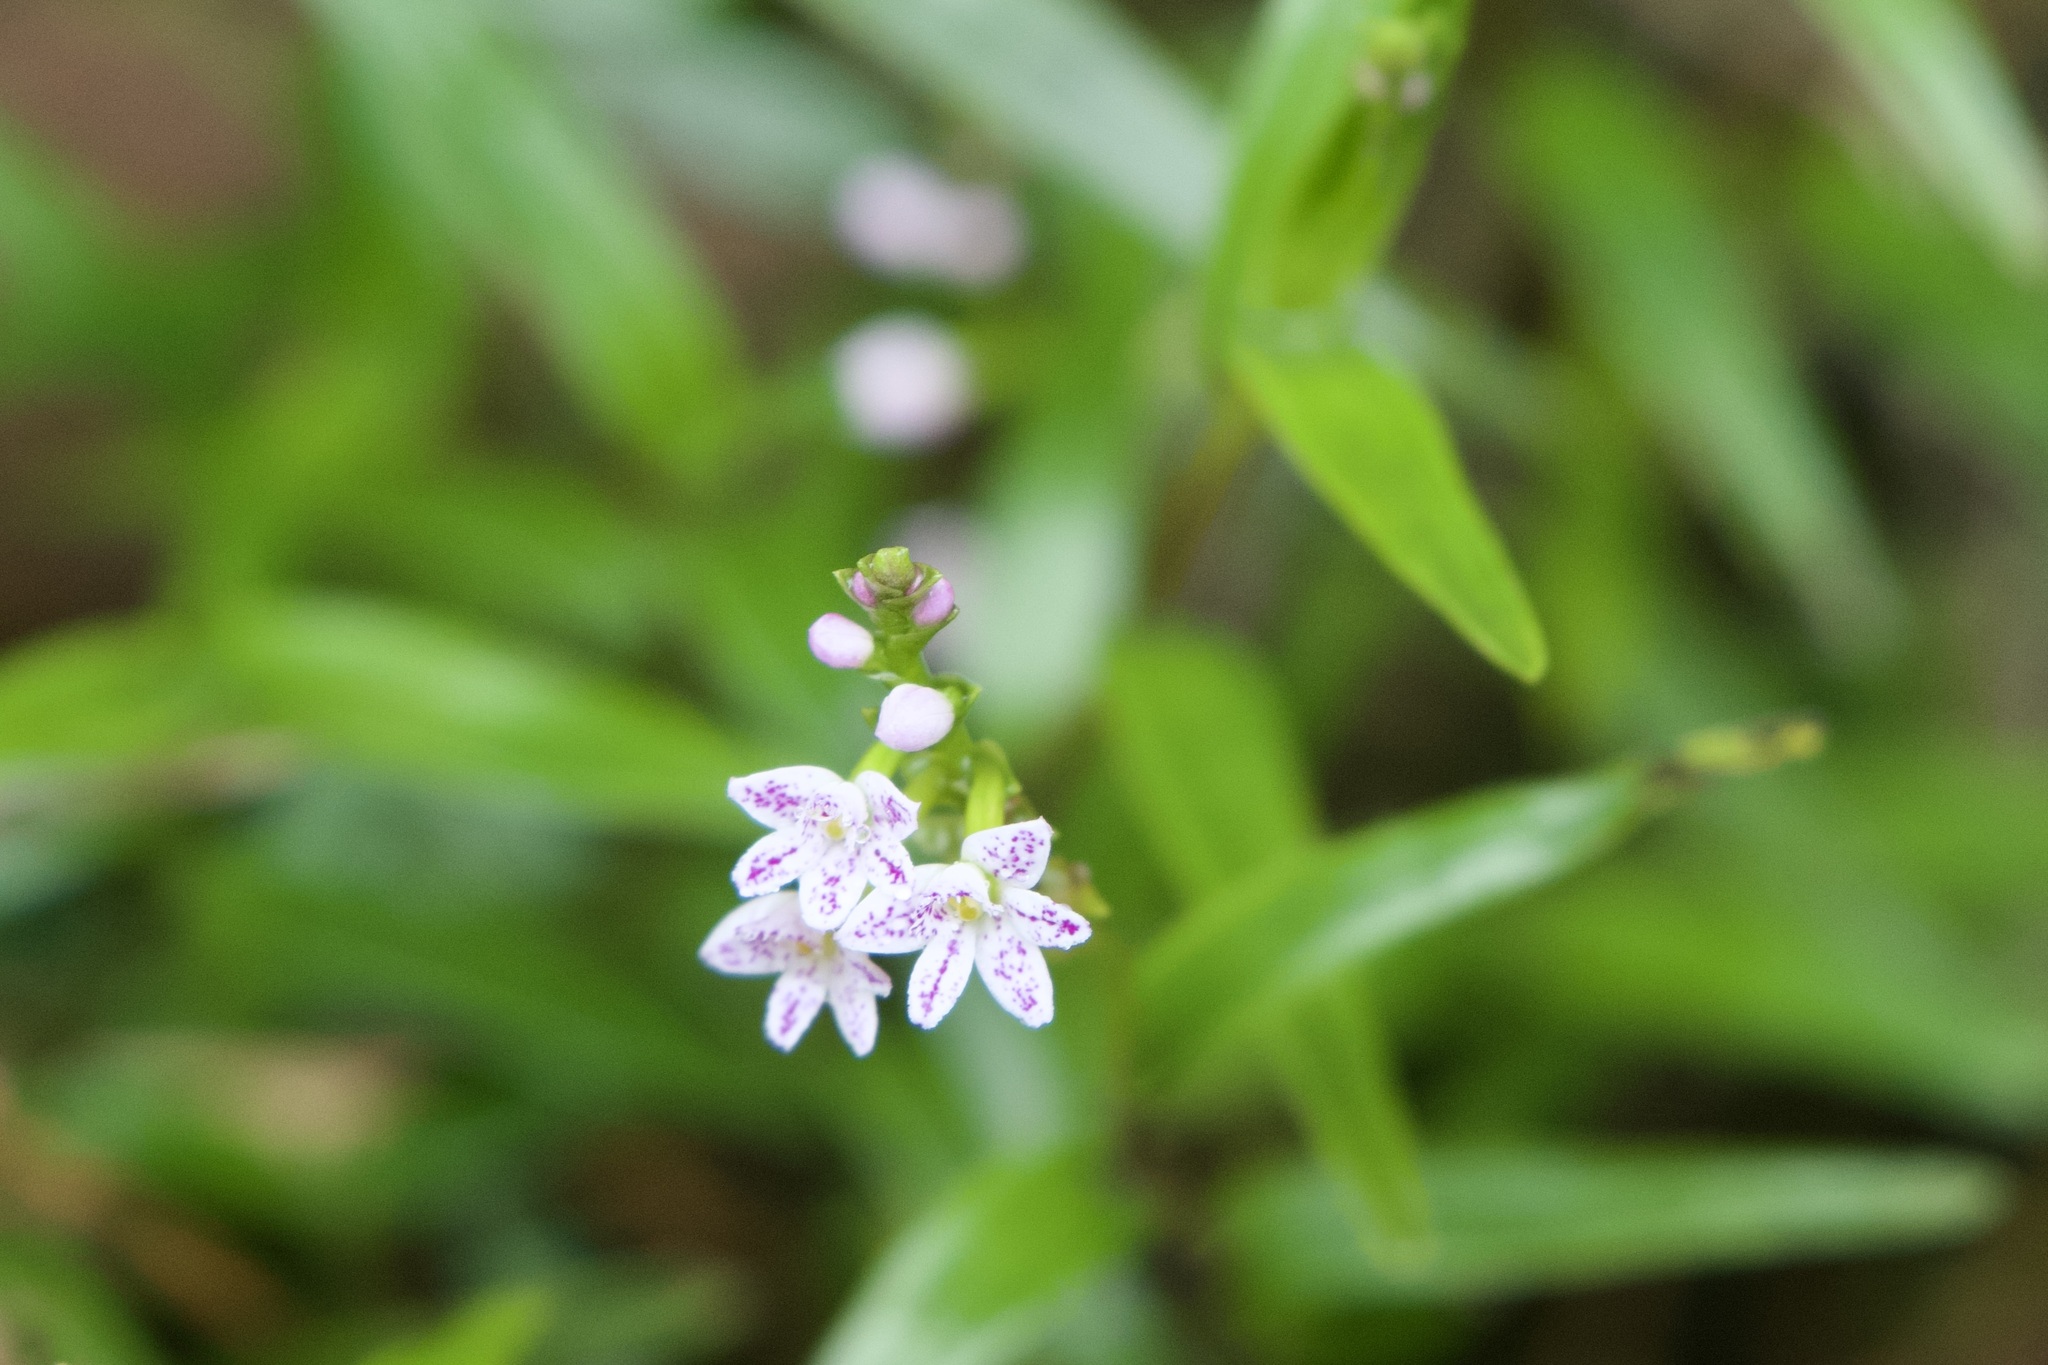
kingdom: Plantae
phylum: Tracheophyta
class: Liliopsida
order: Asparagales
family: Orchidaceae
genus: Epidendrum
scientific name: Epidendrum fimbriatum
